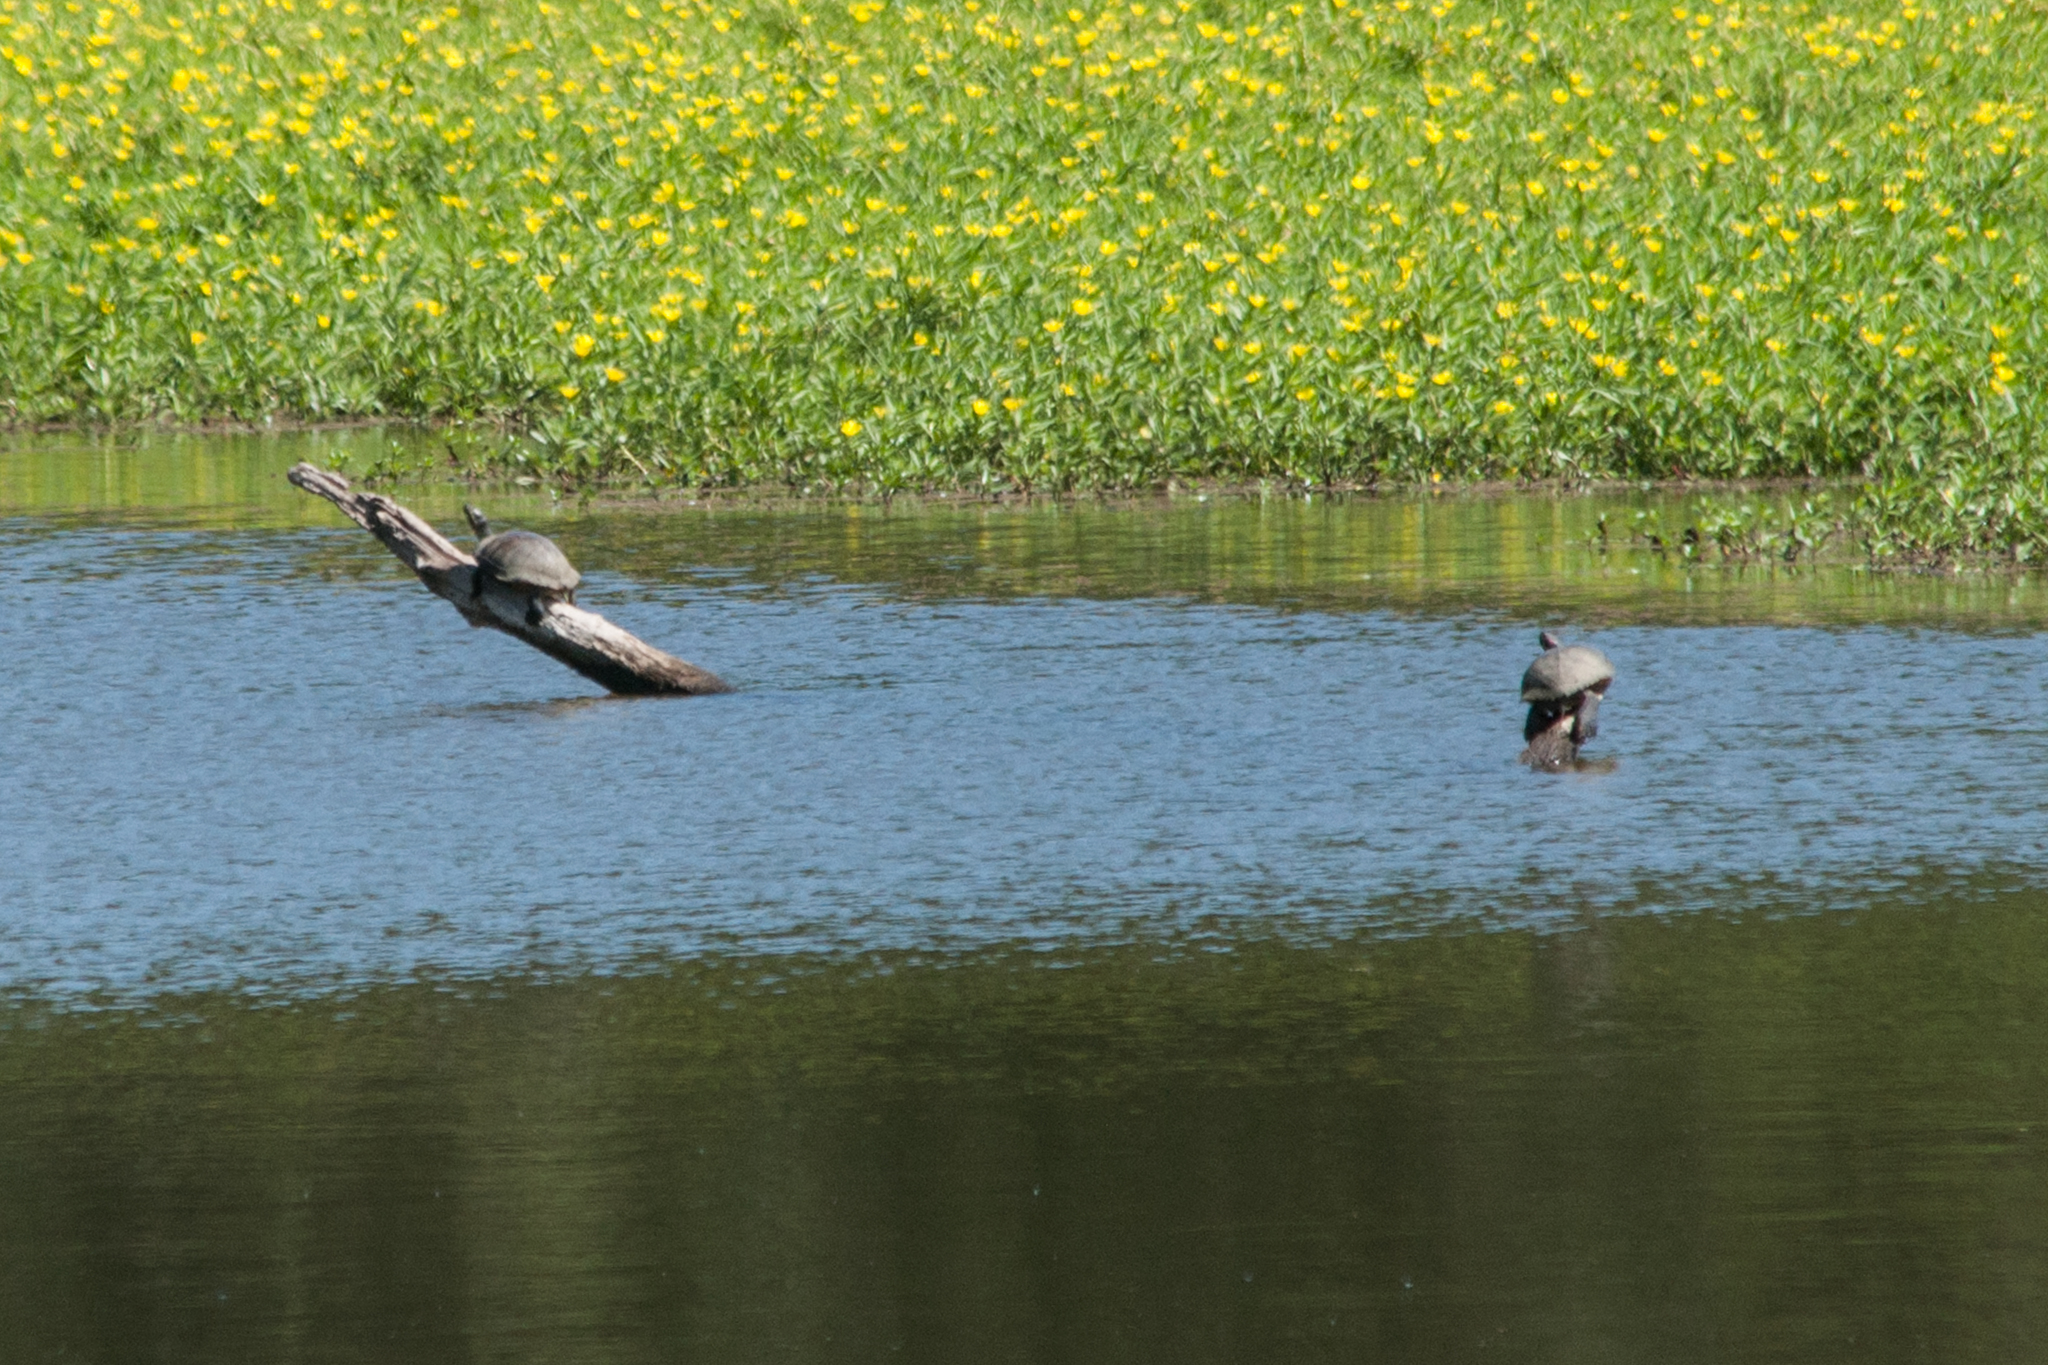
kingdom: Animalia
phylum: Chordata
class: Testudines
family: Emydidae
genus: Trachemys
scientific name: Trachemys scripta
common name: Slider
